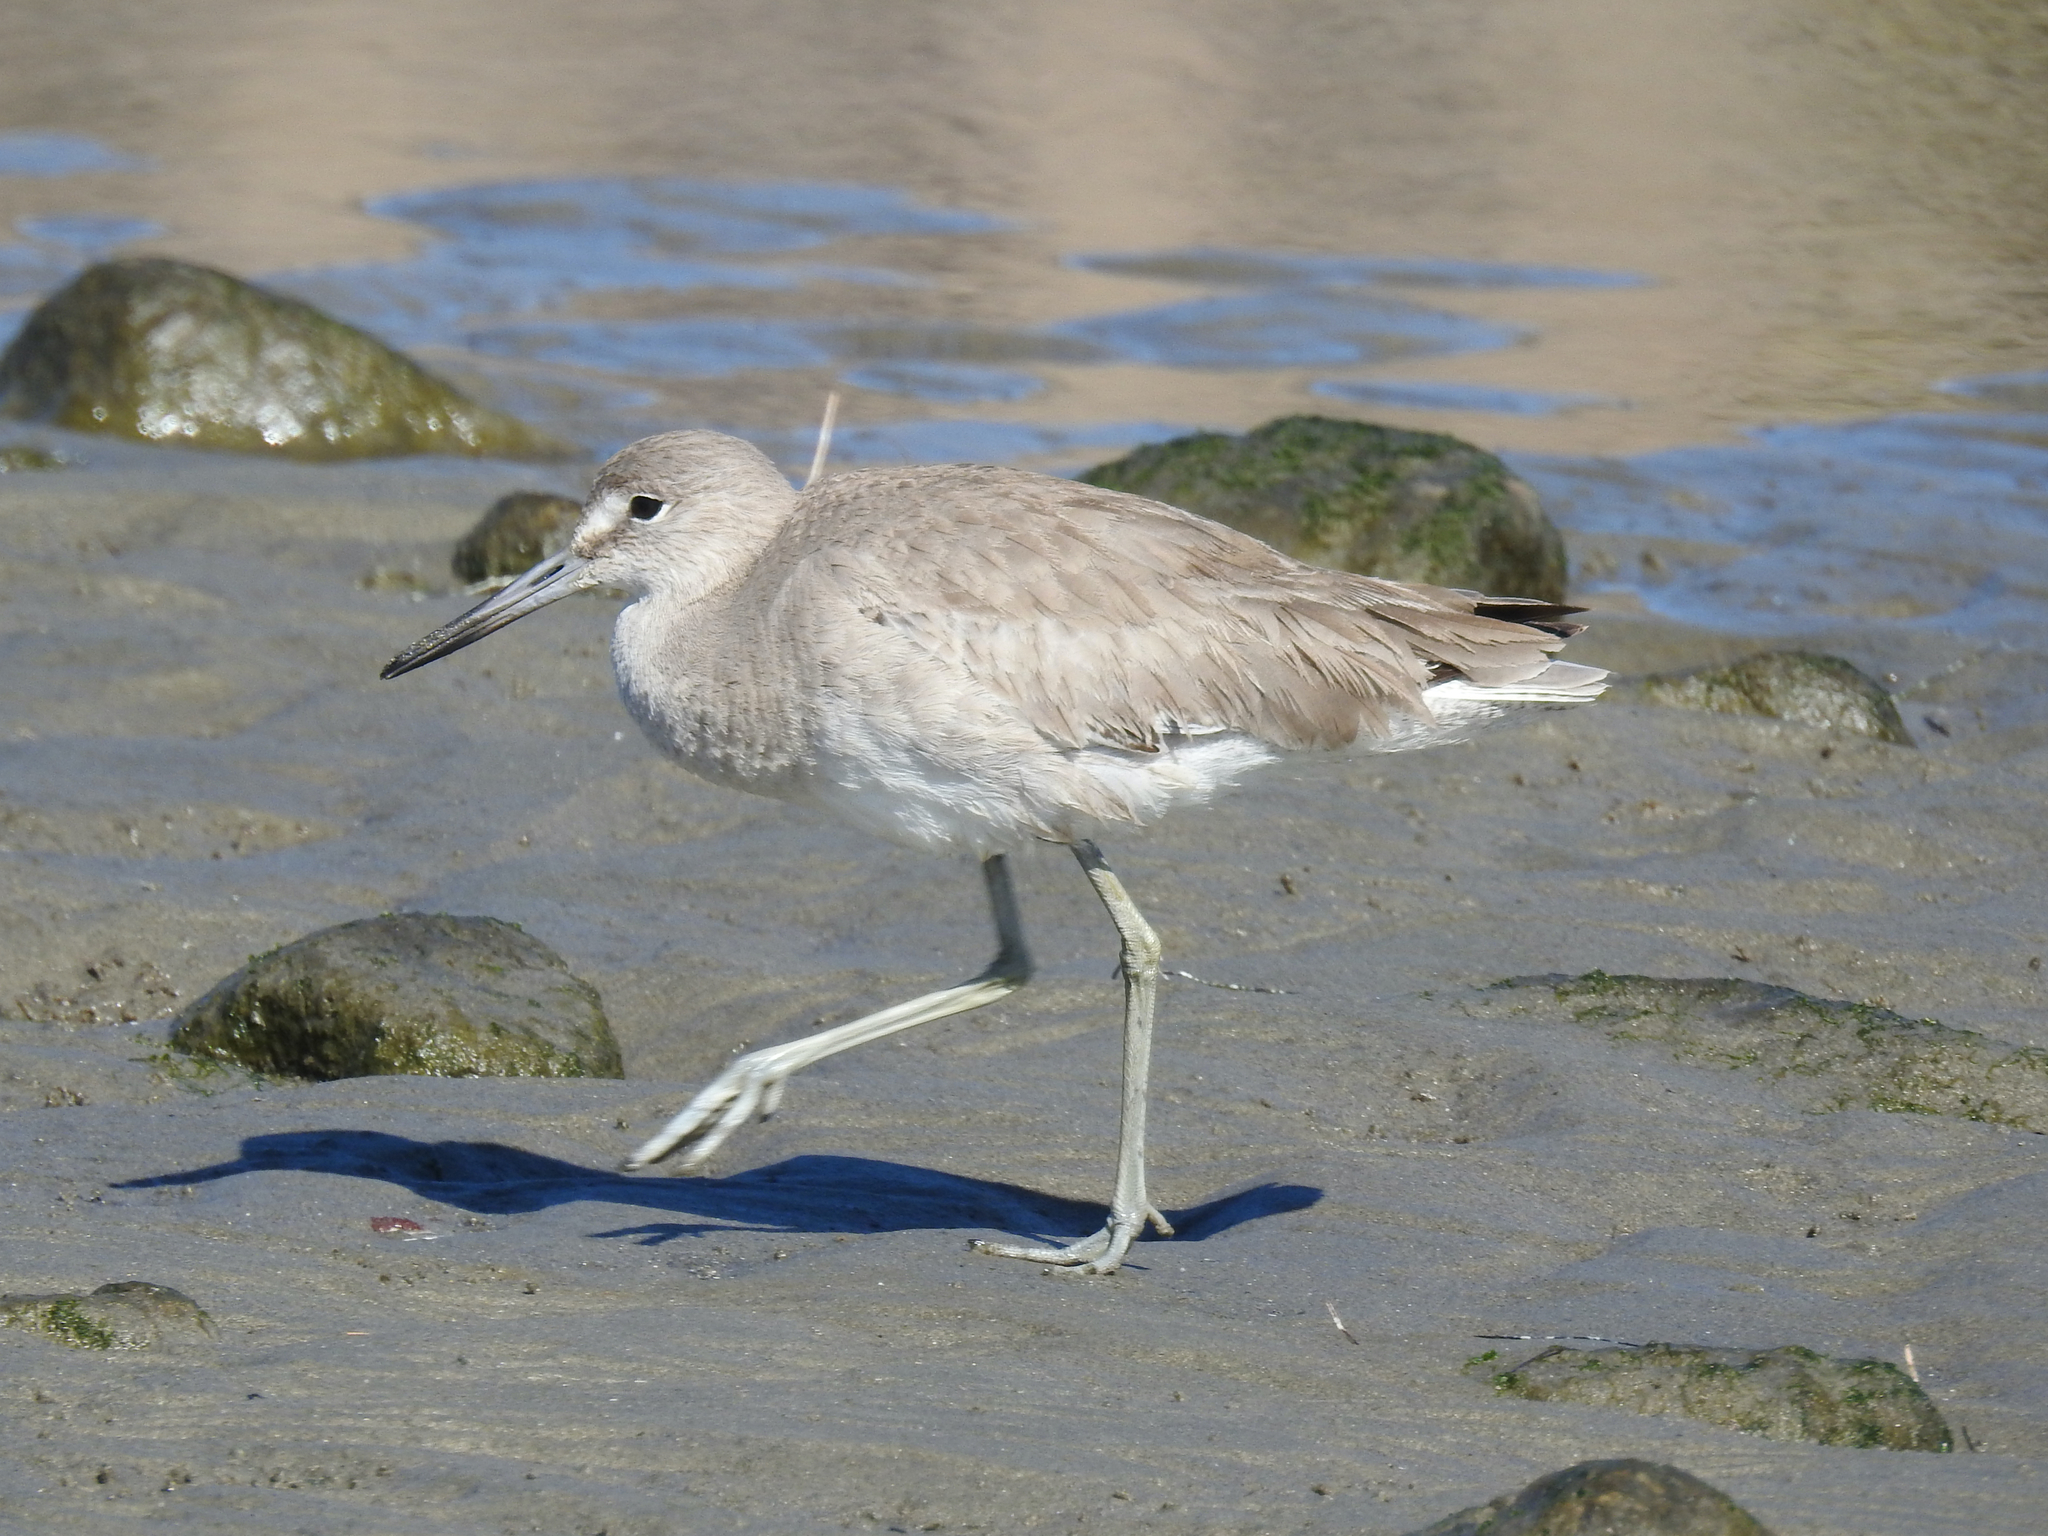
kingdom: Animalia
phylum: Chordata
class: Aves
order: Charadriiformes
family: Scolopacidae
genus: Tringa
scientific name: Tringa semipalmata
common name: Willet
